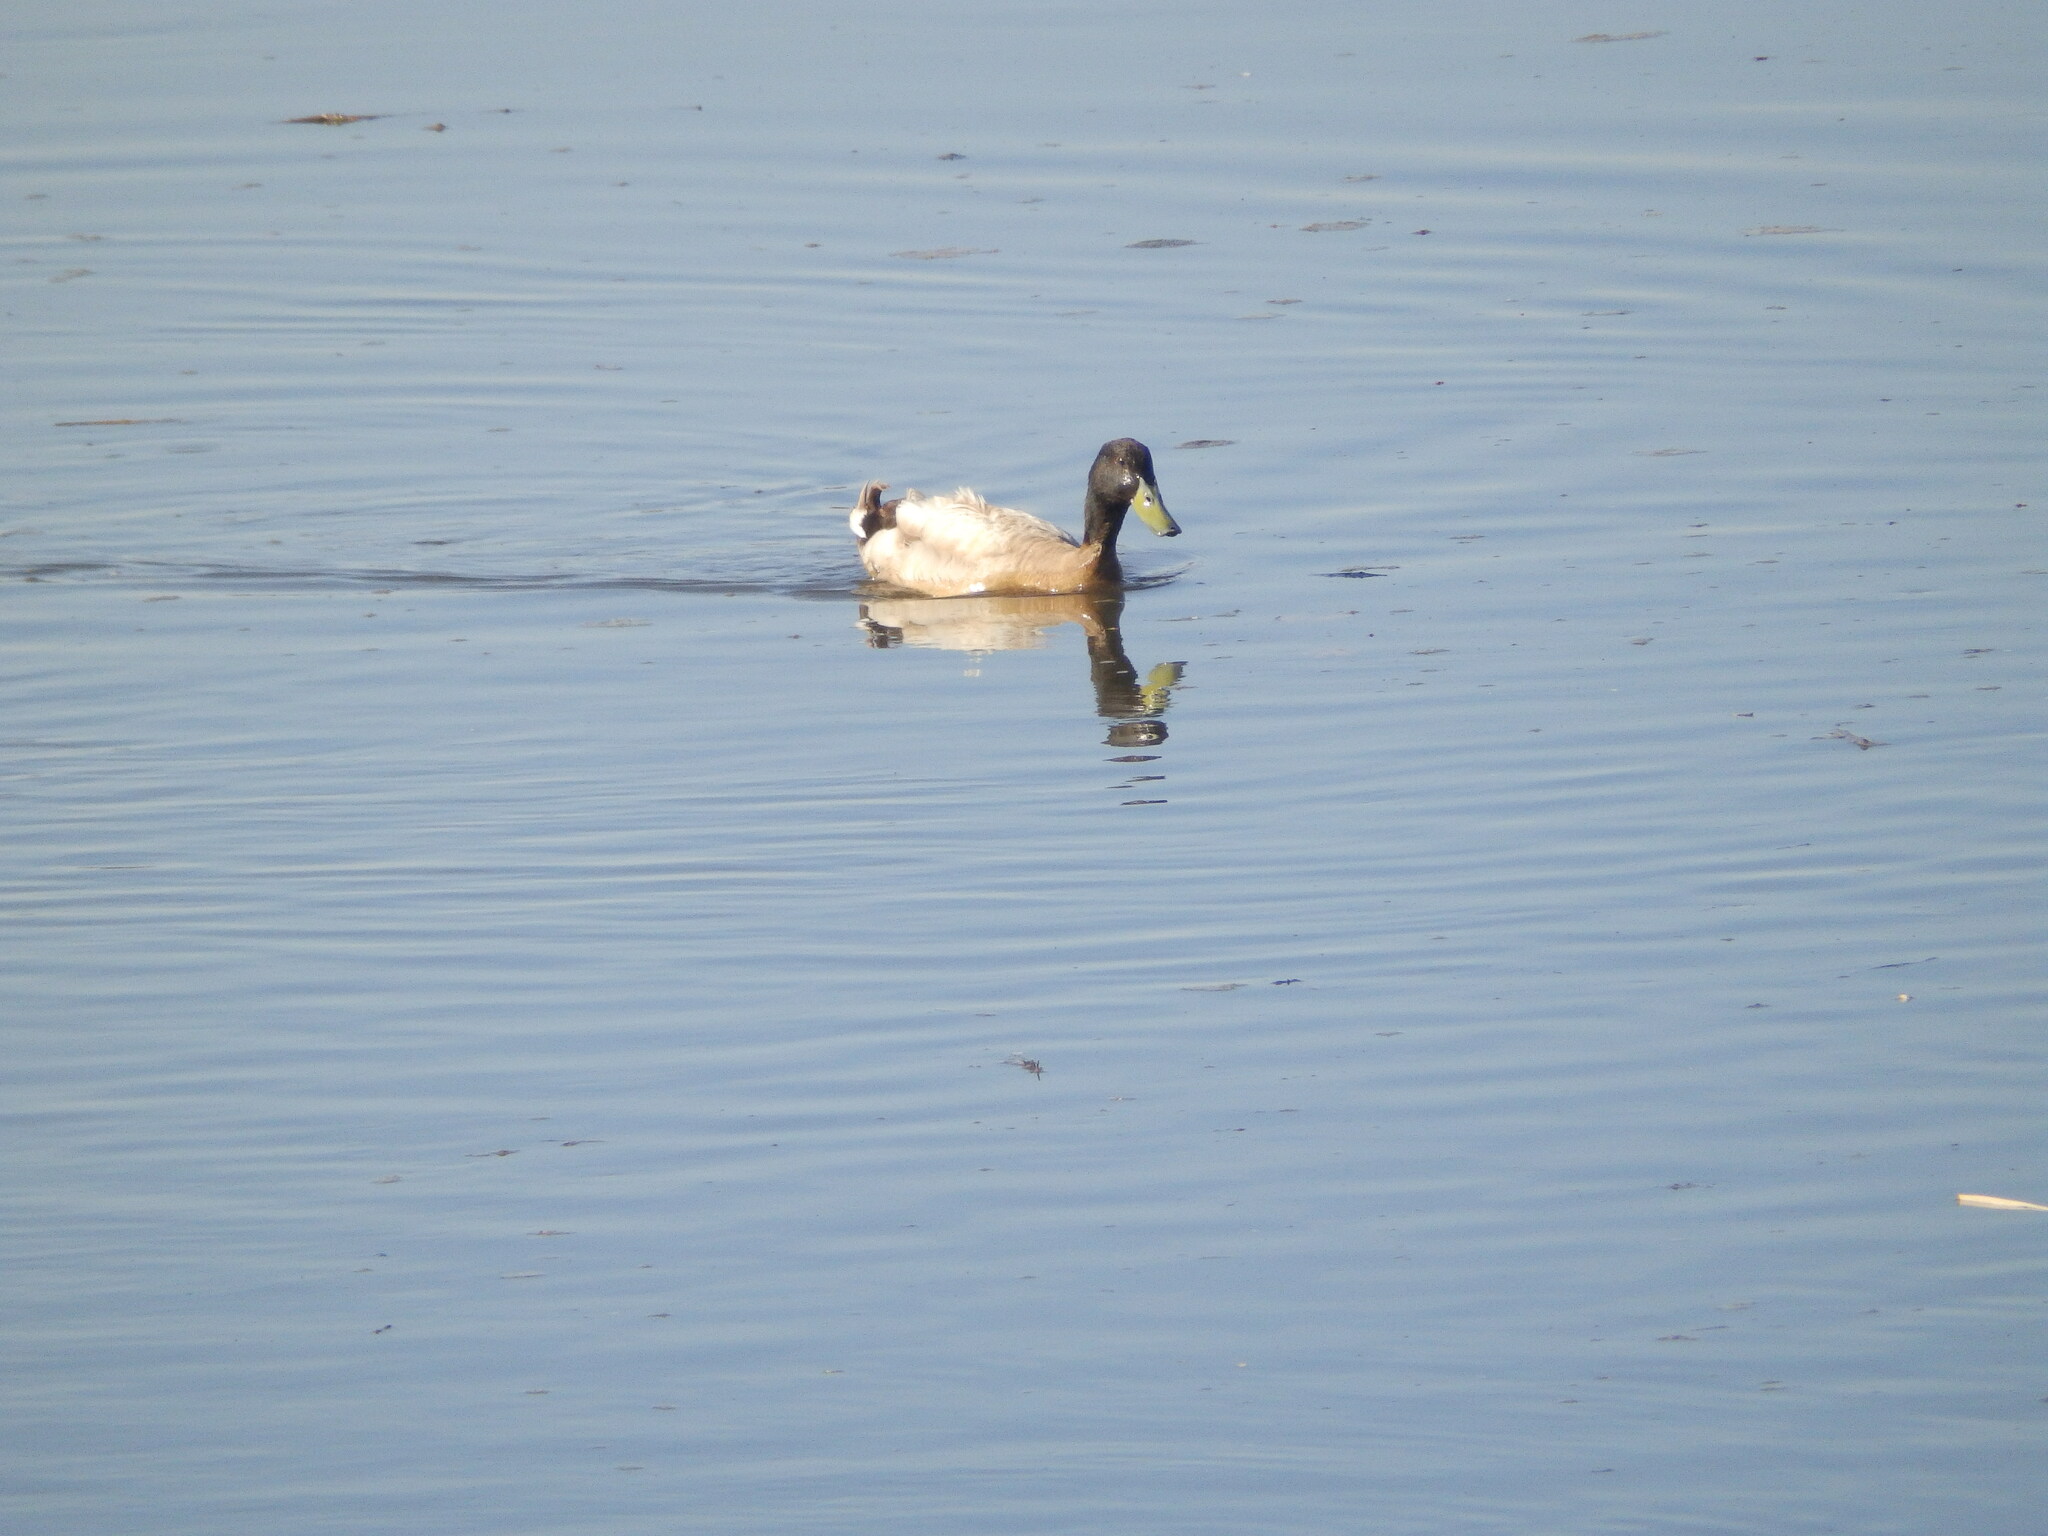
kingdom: Animalia
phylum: Chordata
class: Aves
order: Anseriformes
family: Anatidae
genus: Anas
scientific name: Anas platyrhynchos
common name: Mallard
